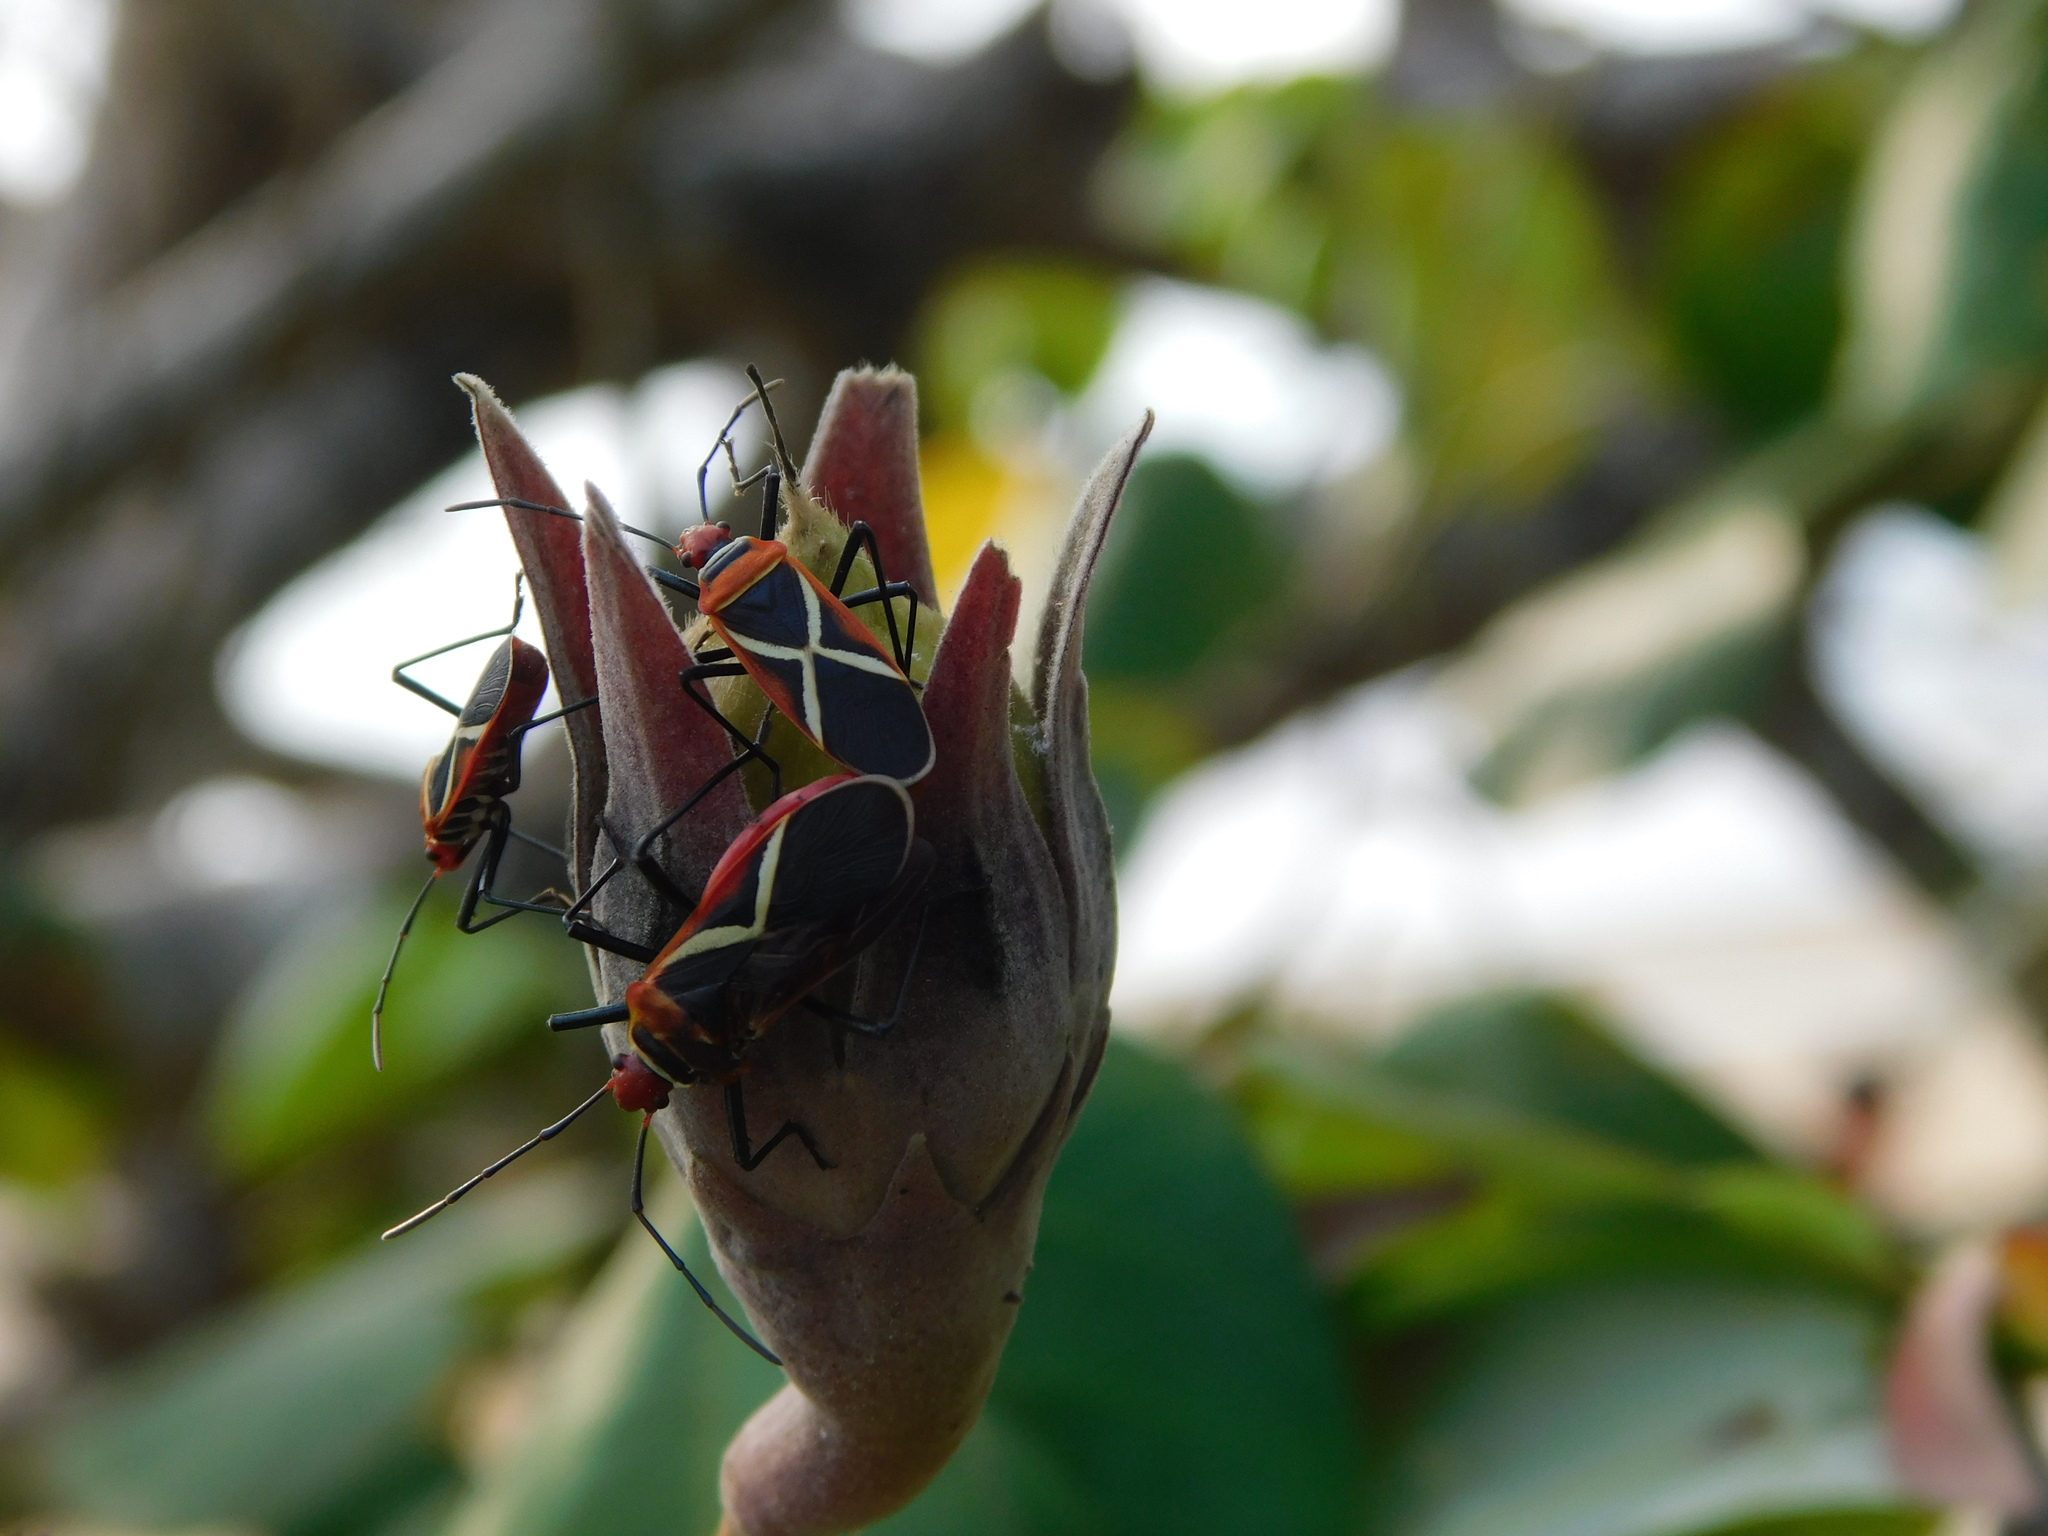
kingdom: Animalia
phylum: Arthropoda
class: Insecta
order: Hemiptera
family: Pyrrhocoridae
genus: Dysdercus
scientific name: Dysdercus decussatus
